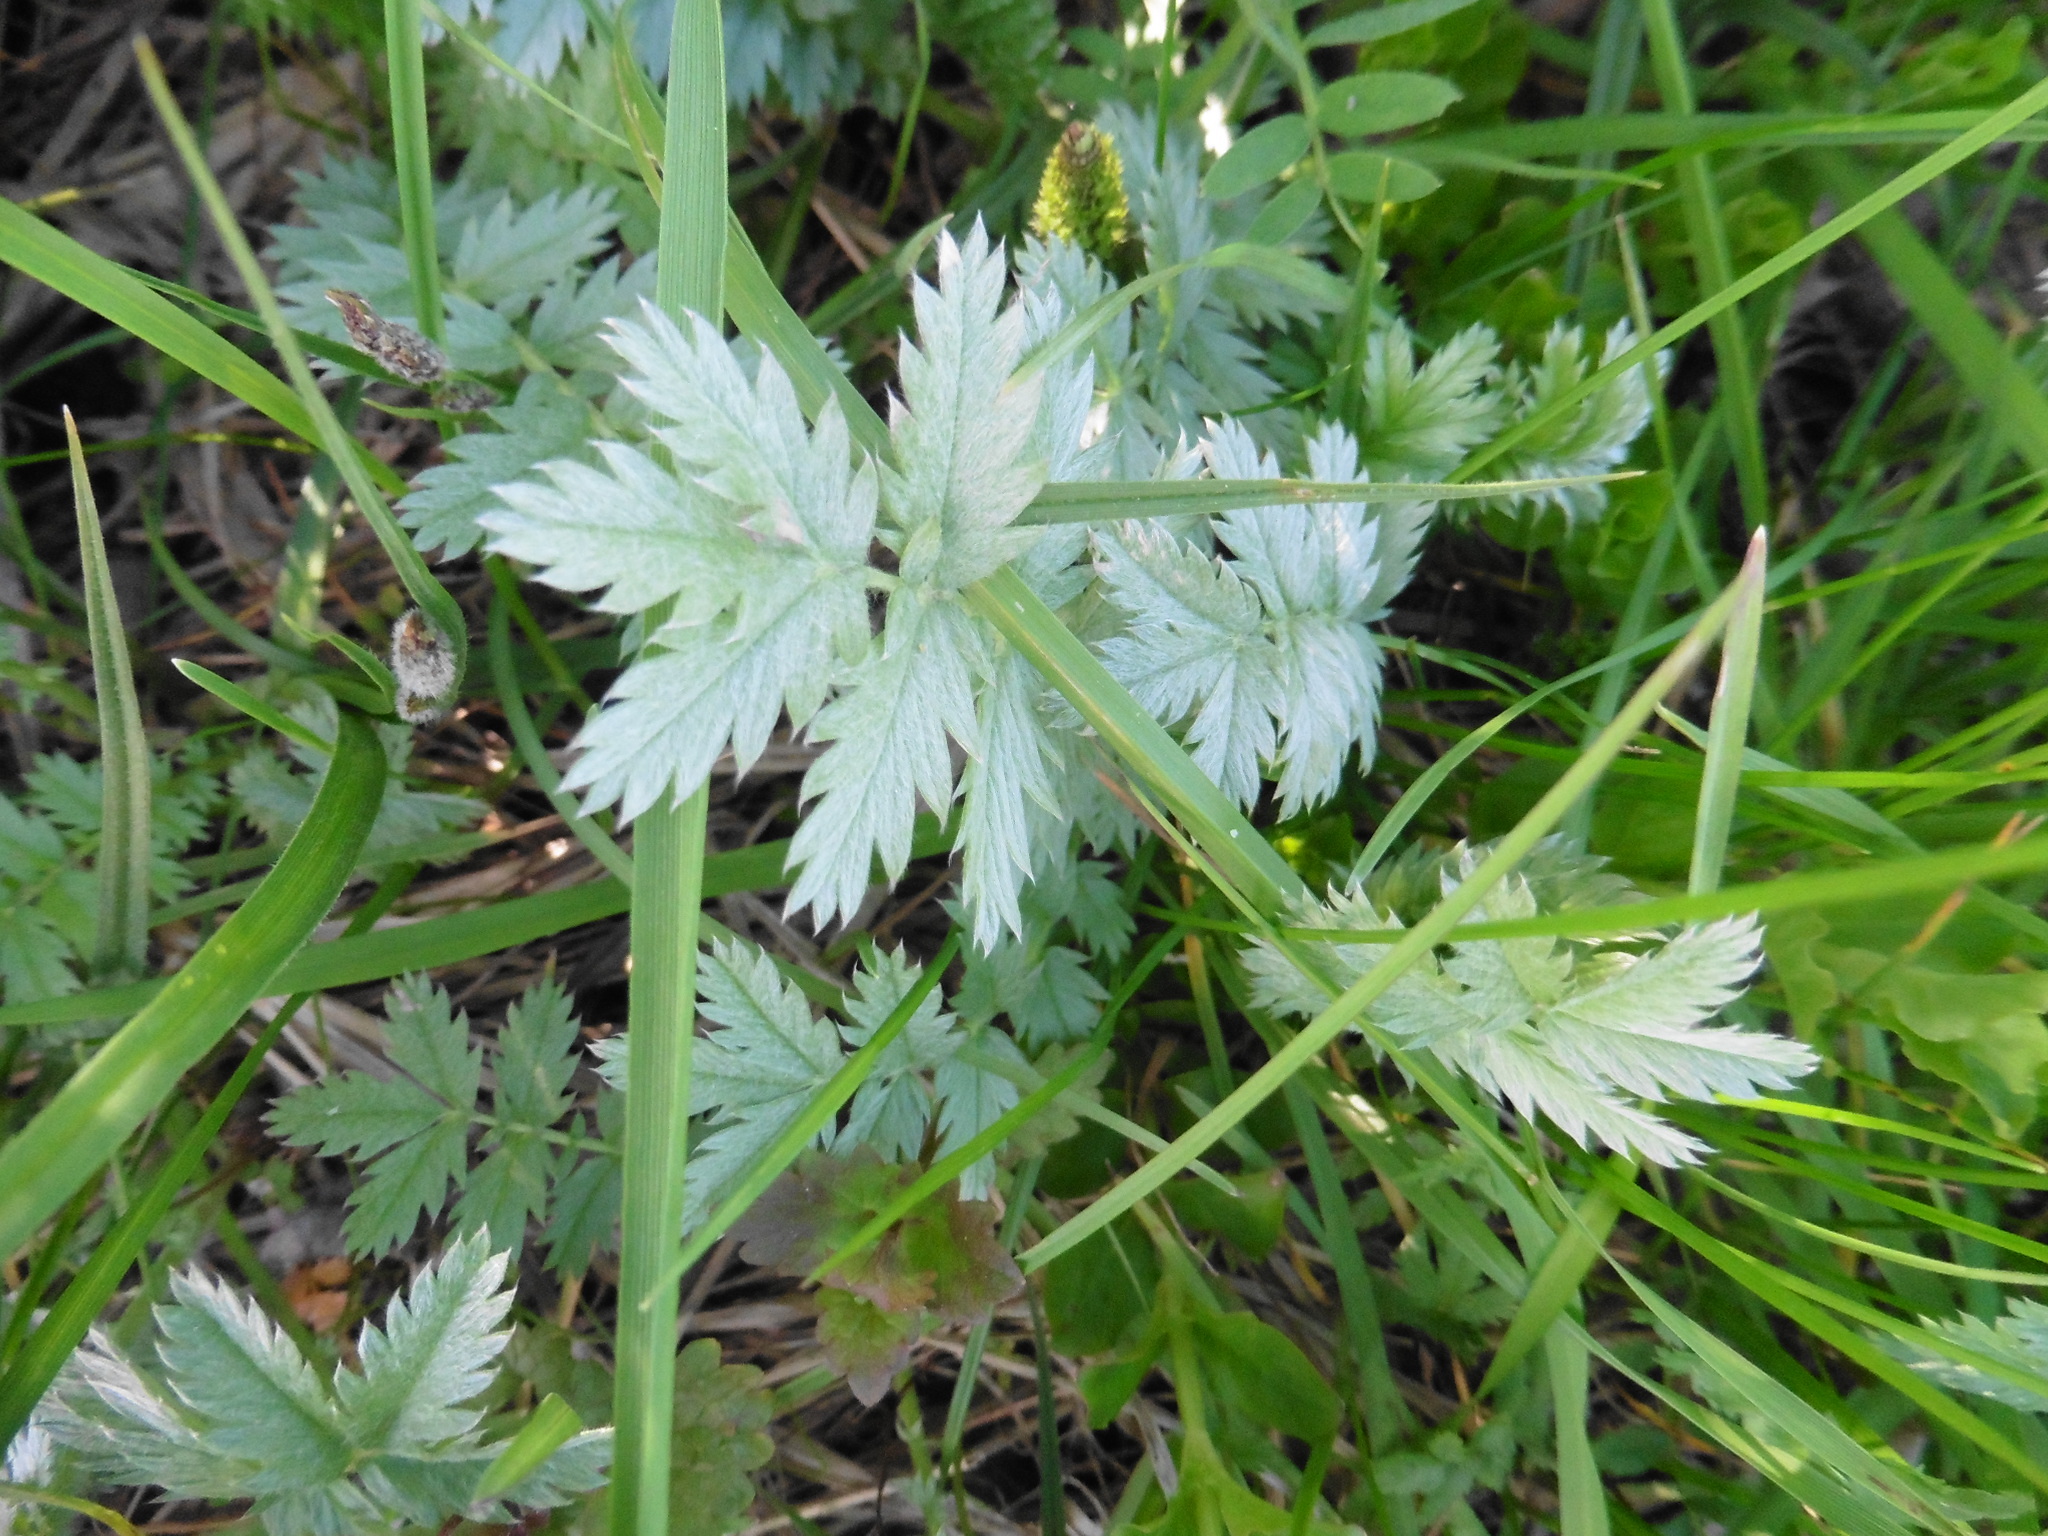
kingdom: Plantae
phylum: Tracheophyta
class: Magnoliopsida
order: Rosales
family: Rosaceae
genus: Argentina
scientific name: Argentina anserina
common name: Common silverweed
